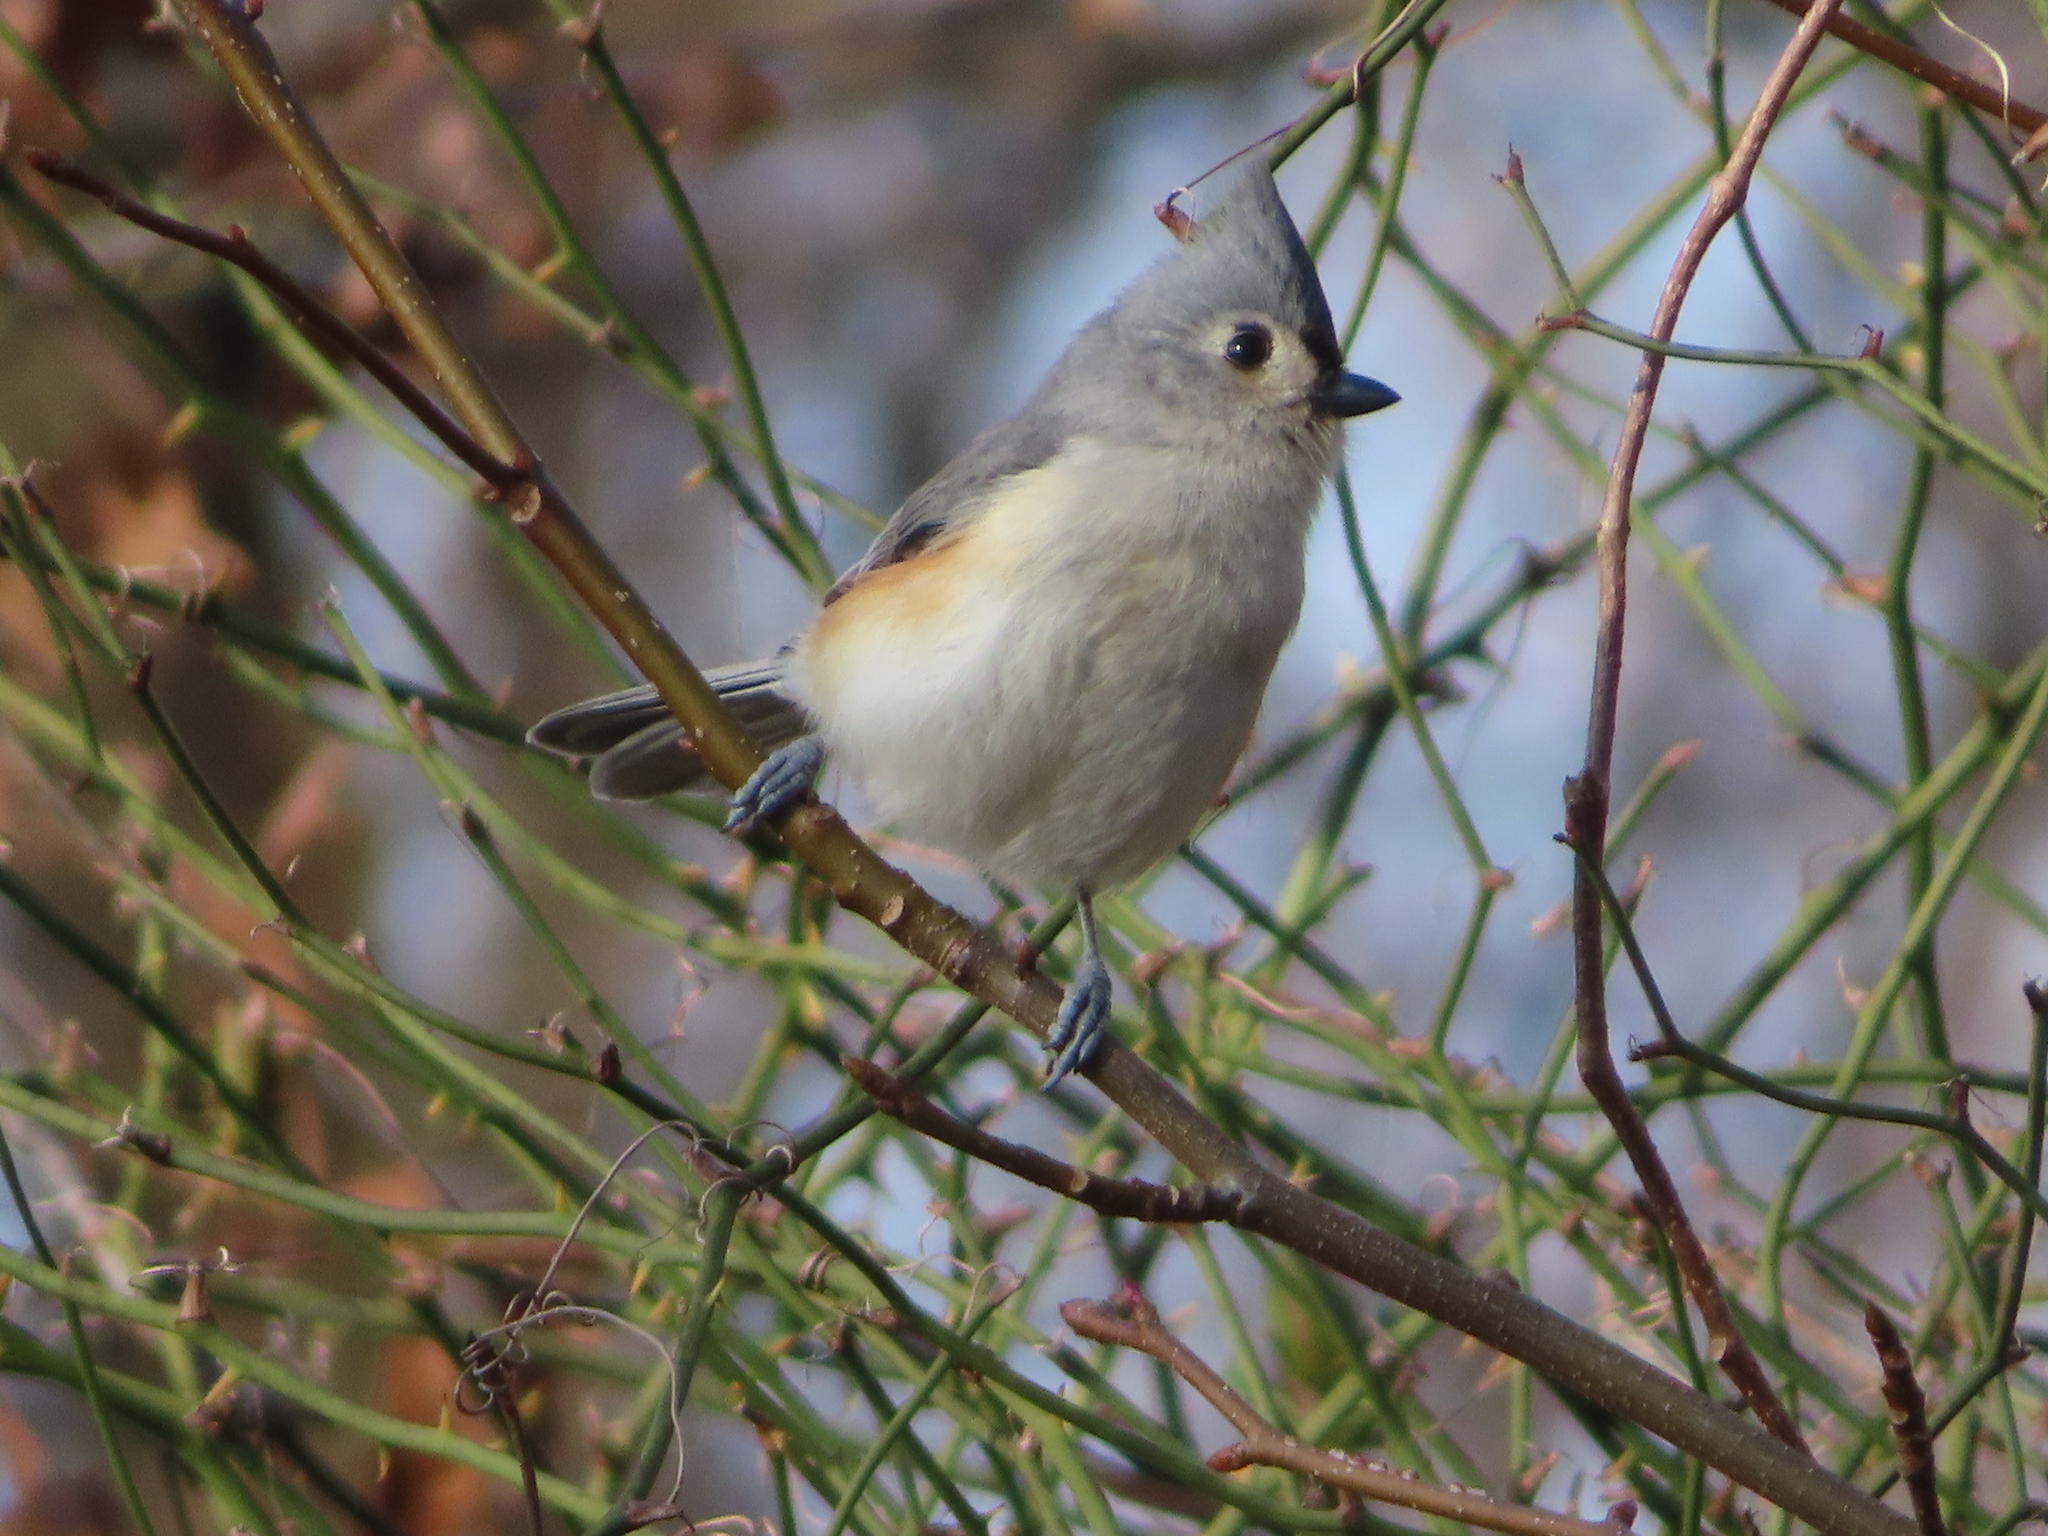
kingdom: Animalia
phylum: Chordata
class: Aves
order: Passeriformes
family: Paridae
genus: Baeolophus
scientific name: Baeolophus bicolor
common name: Tufted titmouse
